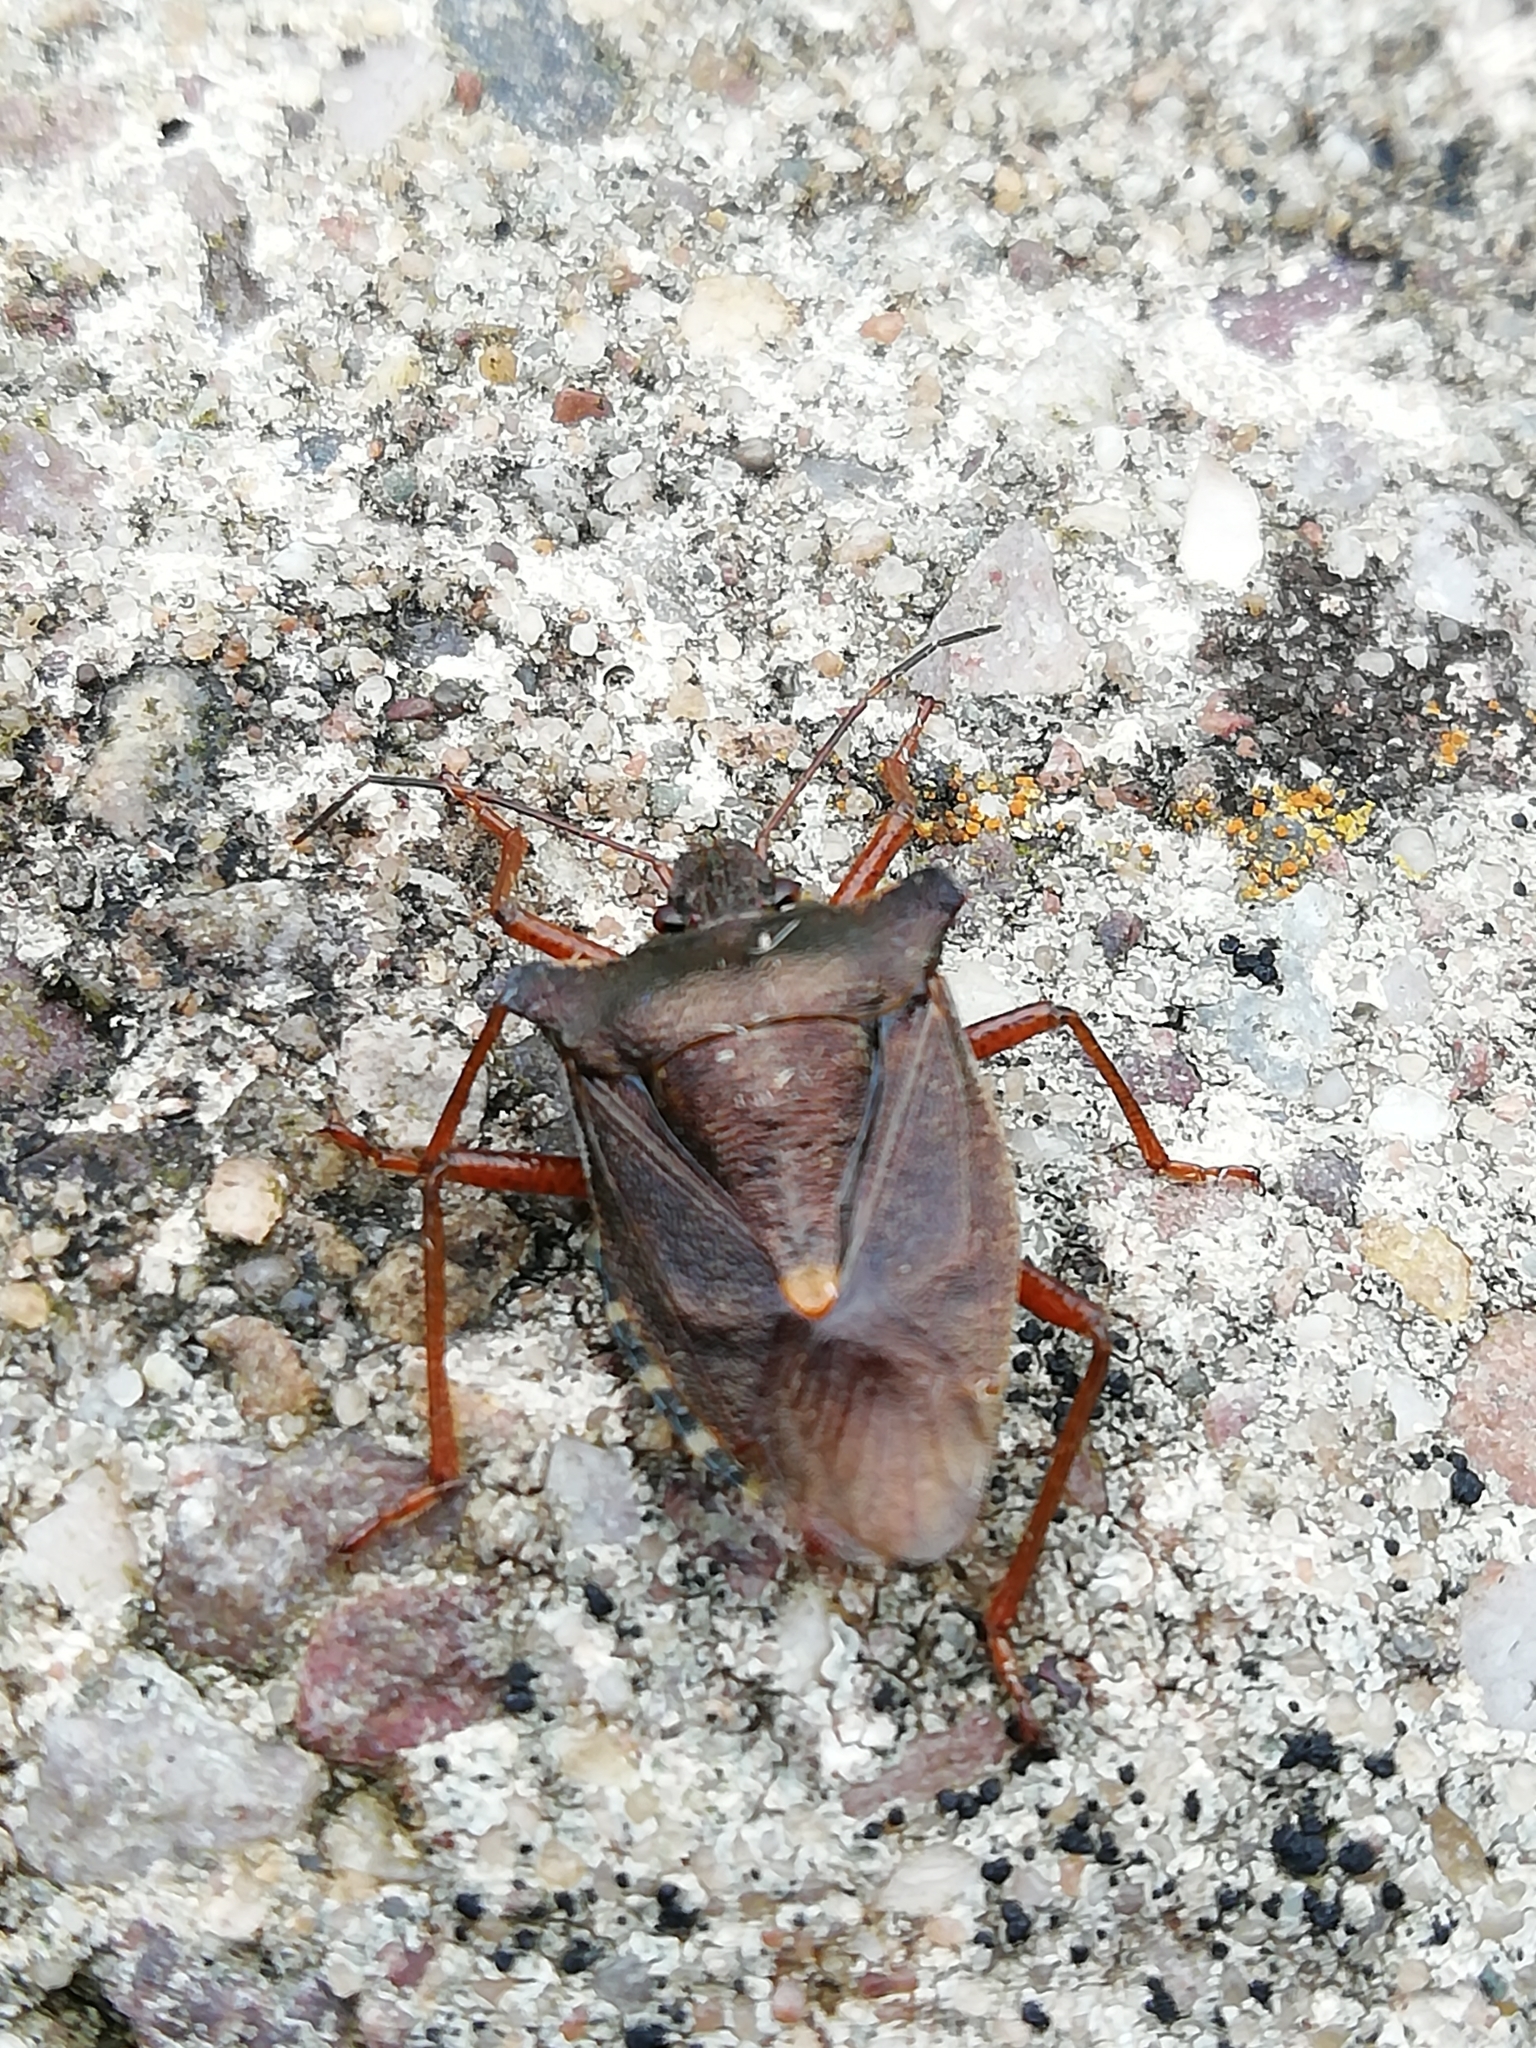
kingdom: Animalia
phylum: Arthropoda
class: Insecta
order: Hemiptera
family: Pentatomidae
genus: Pentatoma
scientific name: Pentatoma rufipes
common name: Forest bug
